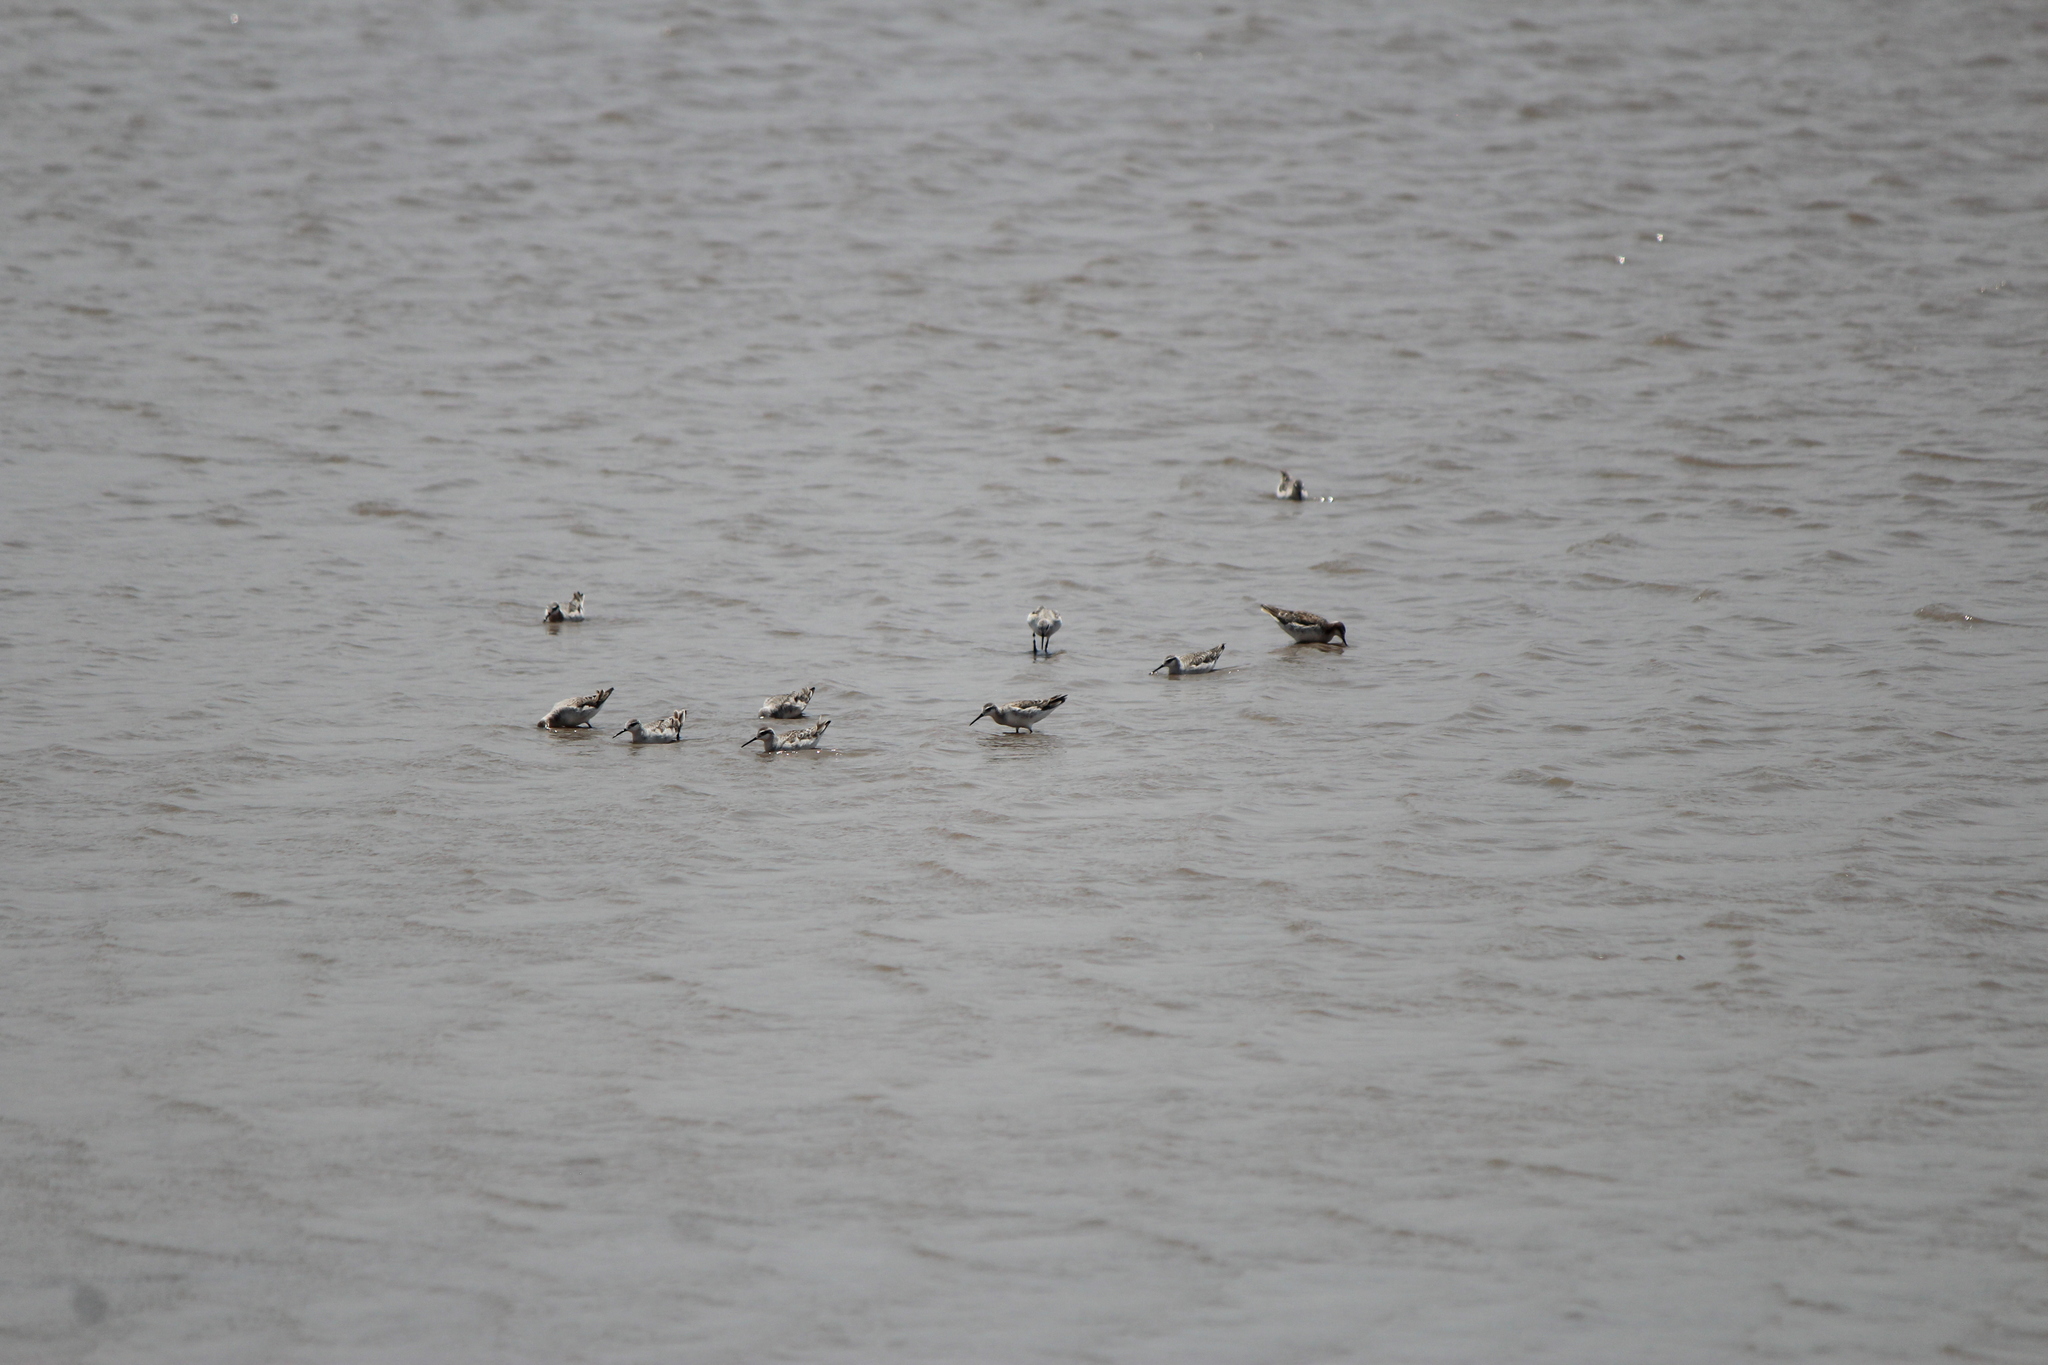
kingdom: Animalia
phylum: Chordata
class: Aves
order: Charadriiformes
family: Scolopacidae
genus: Phalaropus
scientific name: Phalaropus tricolor
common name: Wilson's phalarope
